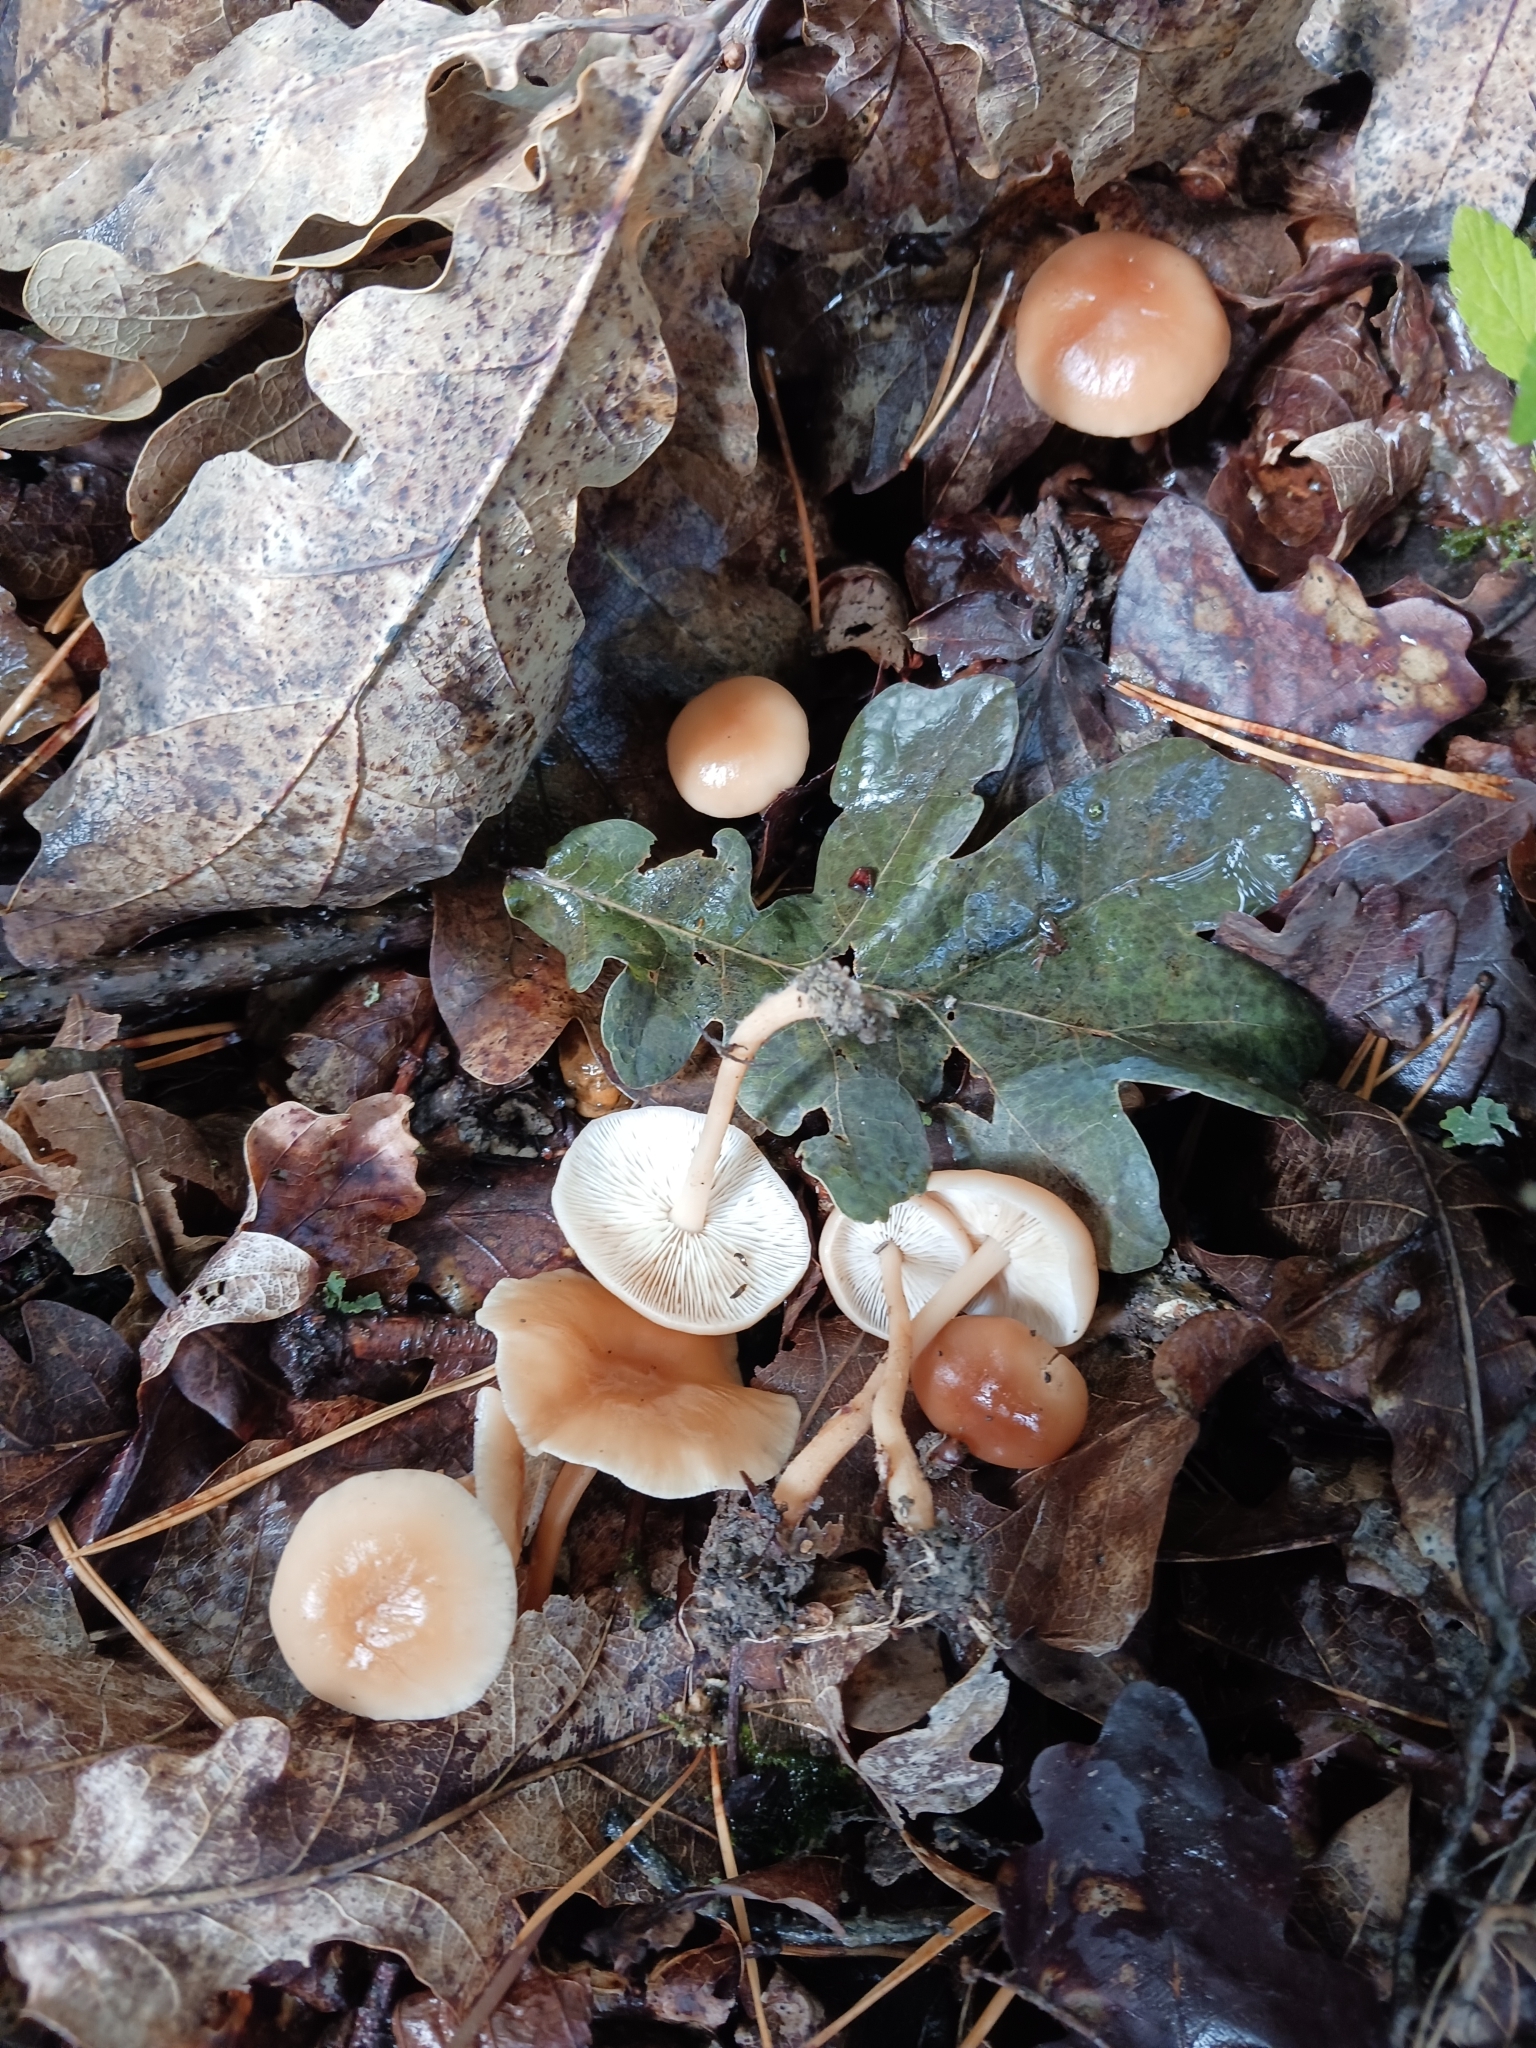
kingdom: Fungi
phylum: Basidiomycota
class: Agaricomycetes
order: Agaricales
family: Omphalotaceae
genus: Gymnopus
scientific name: Gymnopus dryophilus
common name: Penny top
